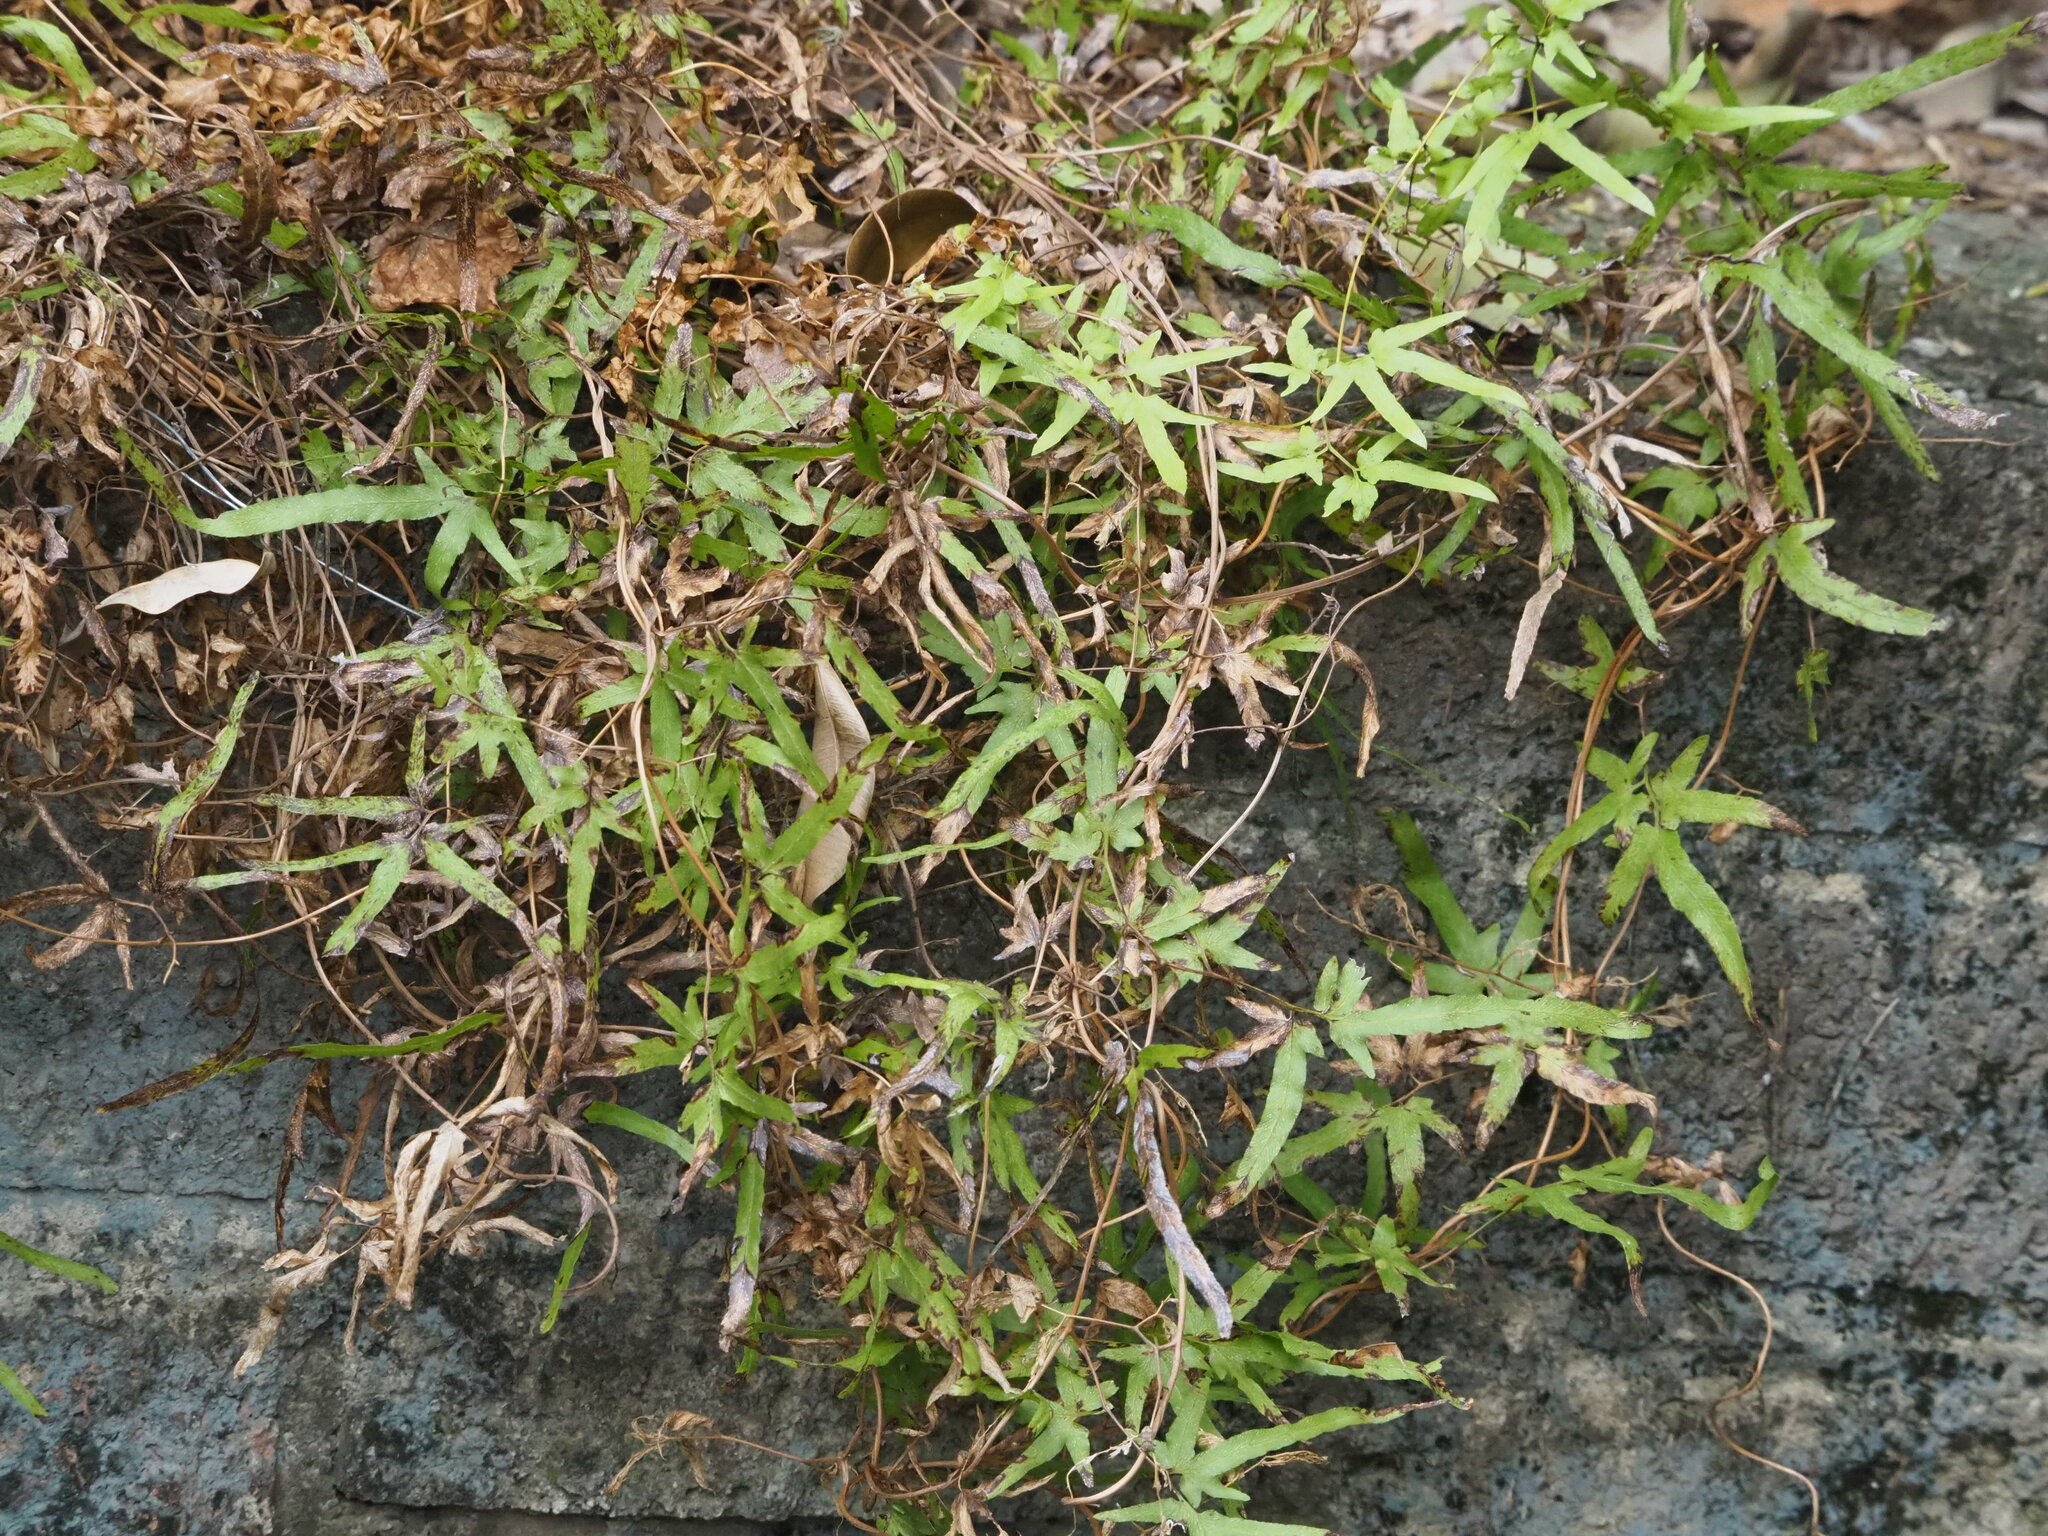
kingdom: Plantae
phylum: Tracheophyta
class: Polypodiopsida
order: Schizaeales
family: Lygodiaceae
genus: Lygodium
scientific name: Lygodium japonicum
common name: Japanese climbing fern
